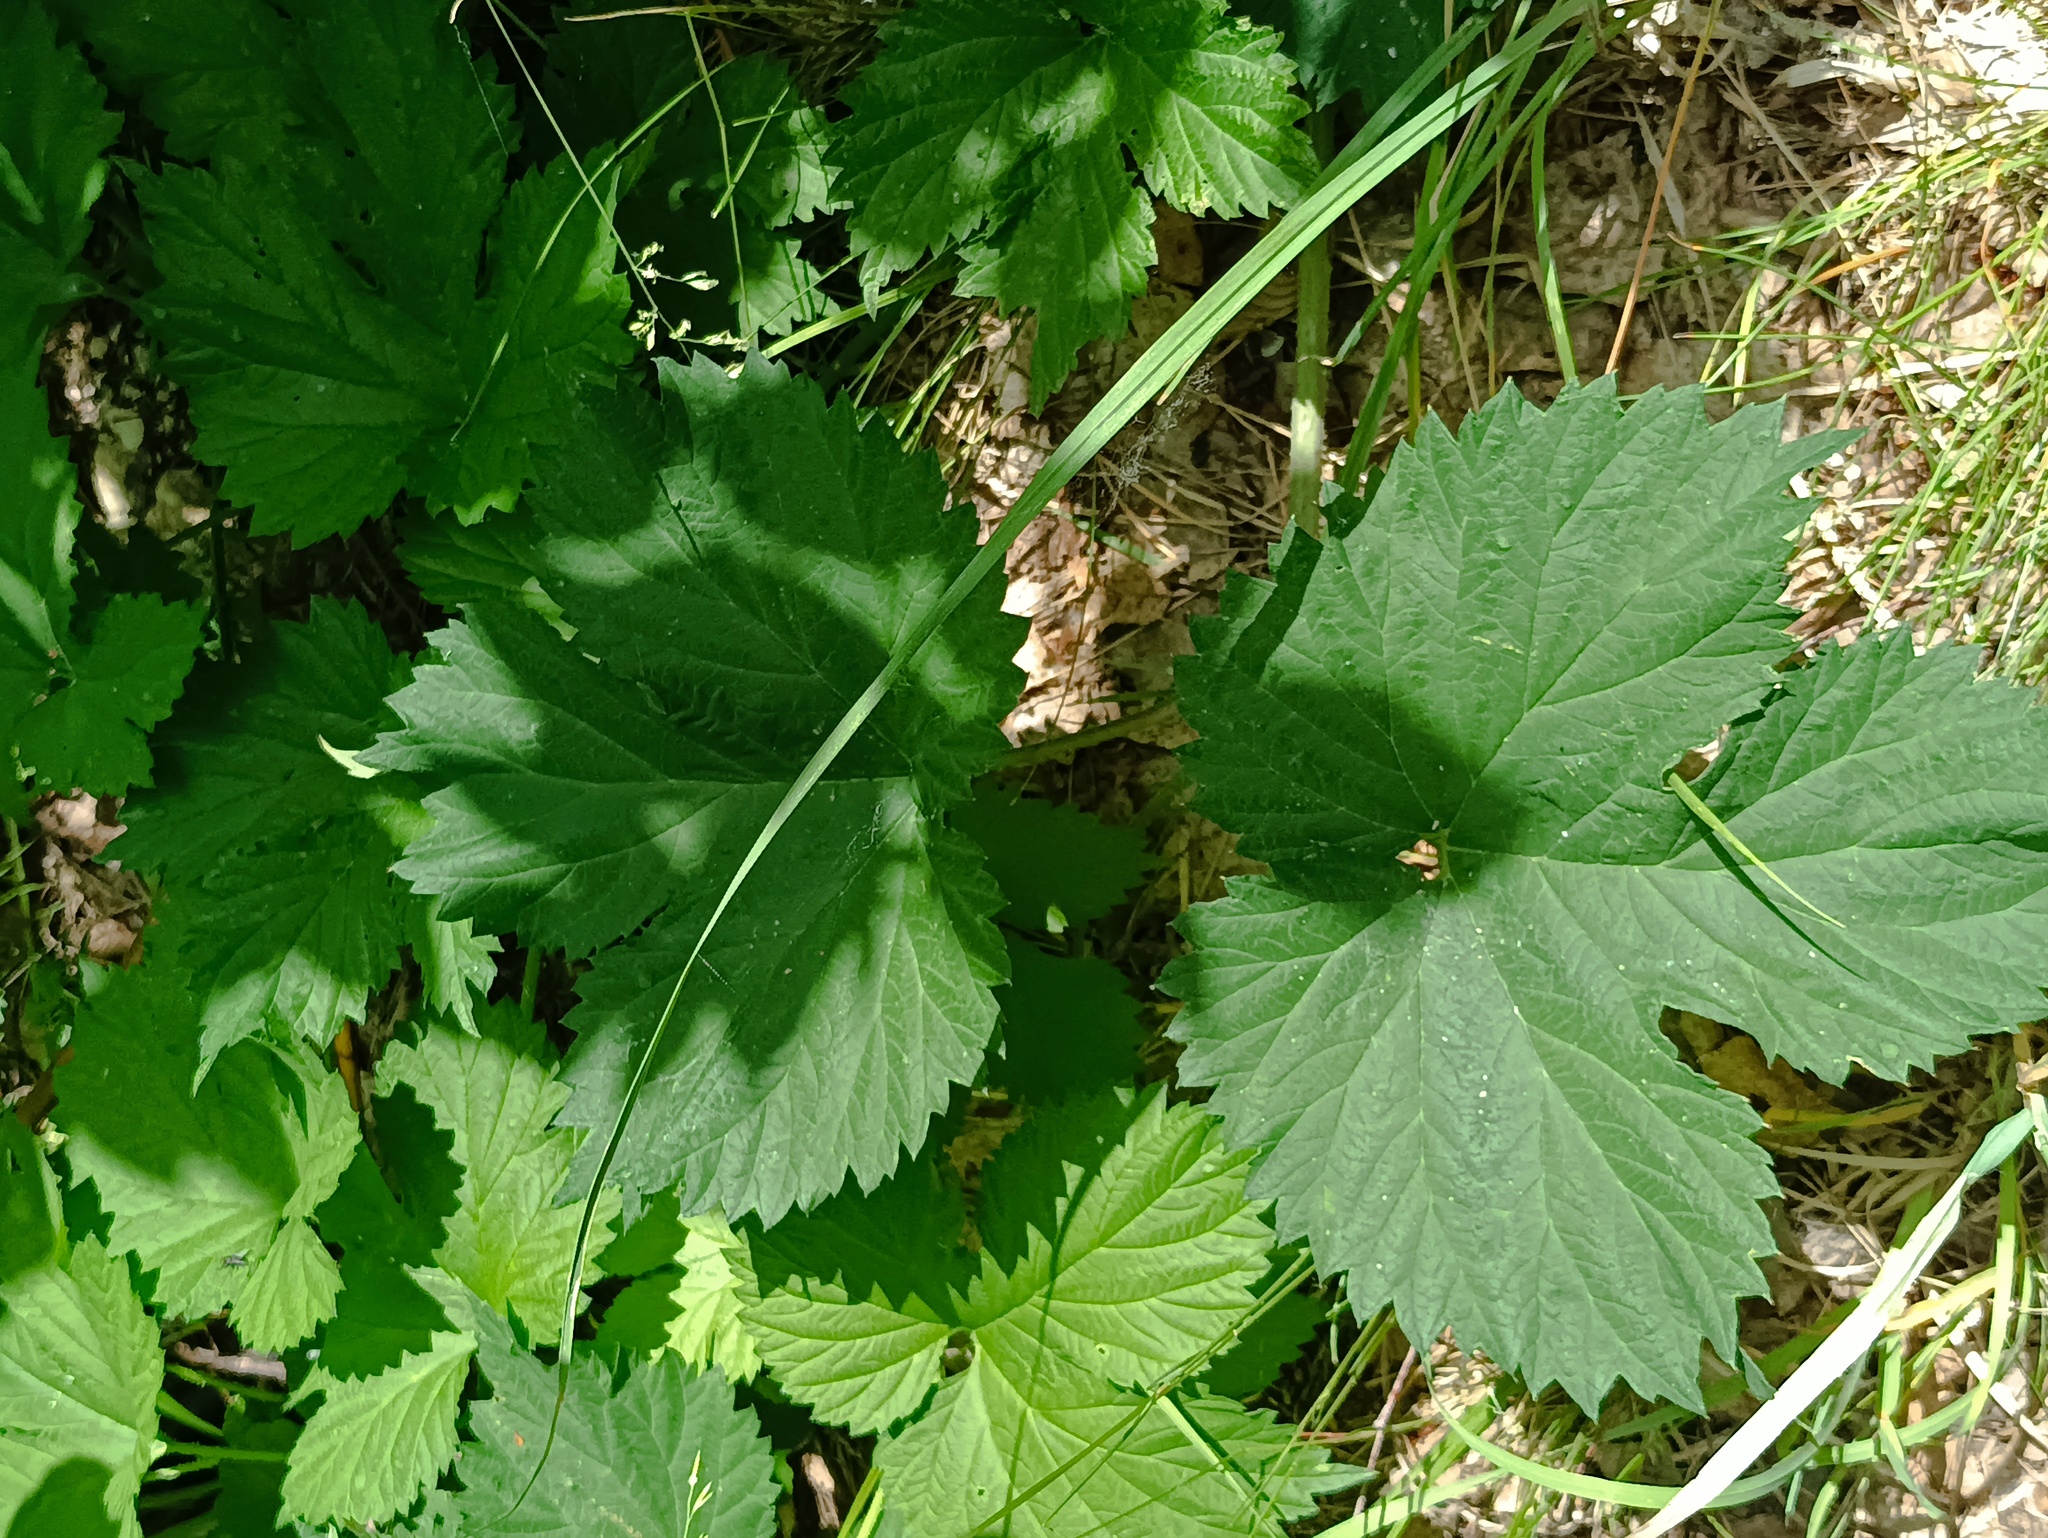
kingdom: Plantae
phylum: Tracheophyta
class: Magnoliopsida
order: Rosales
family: Cannabaceae
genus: Humulus
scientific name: Humulus lupulus
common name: Hop
